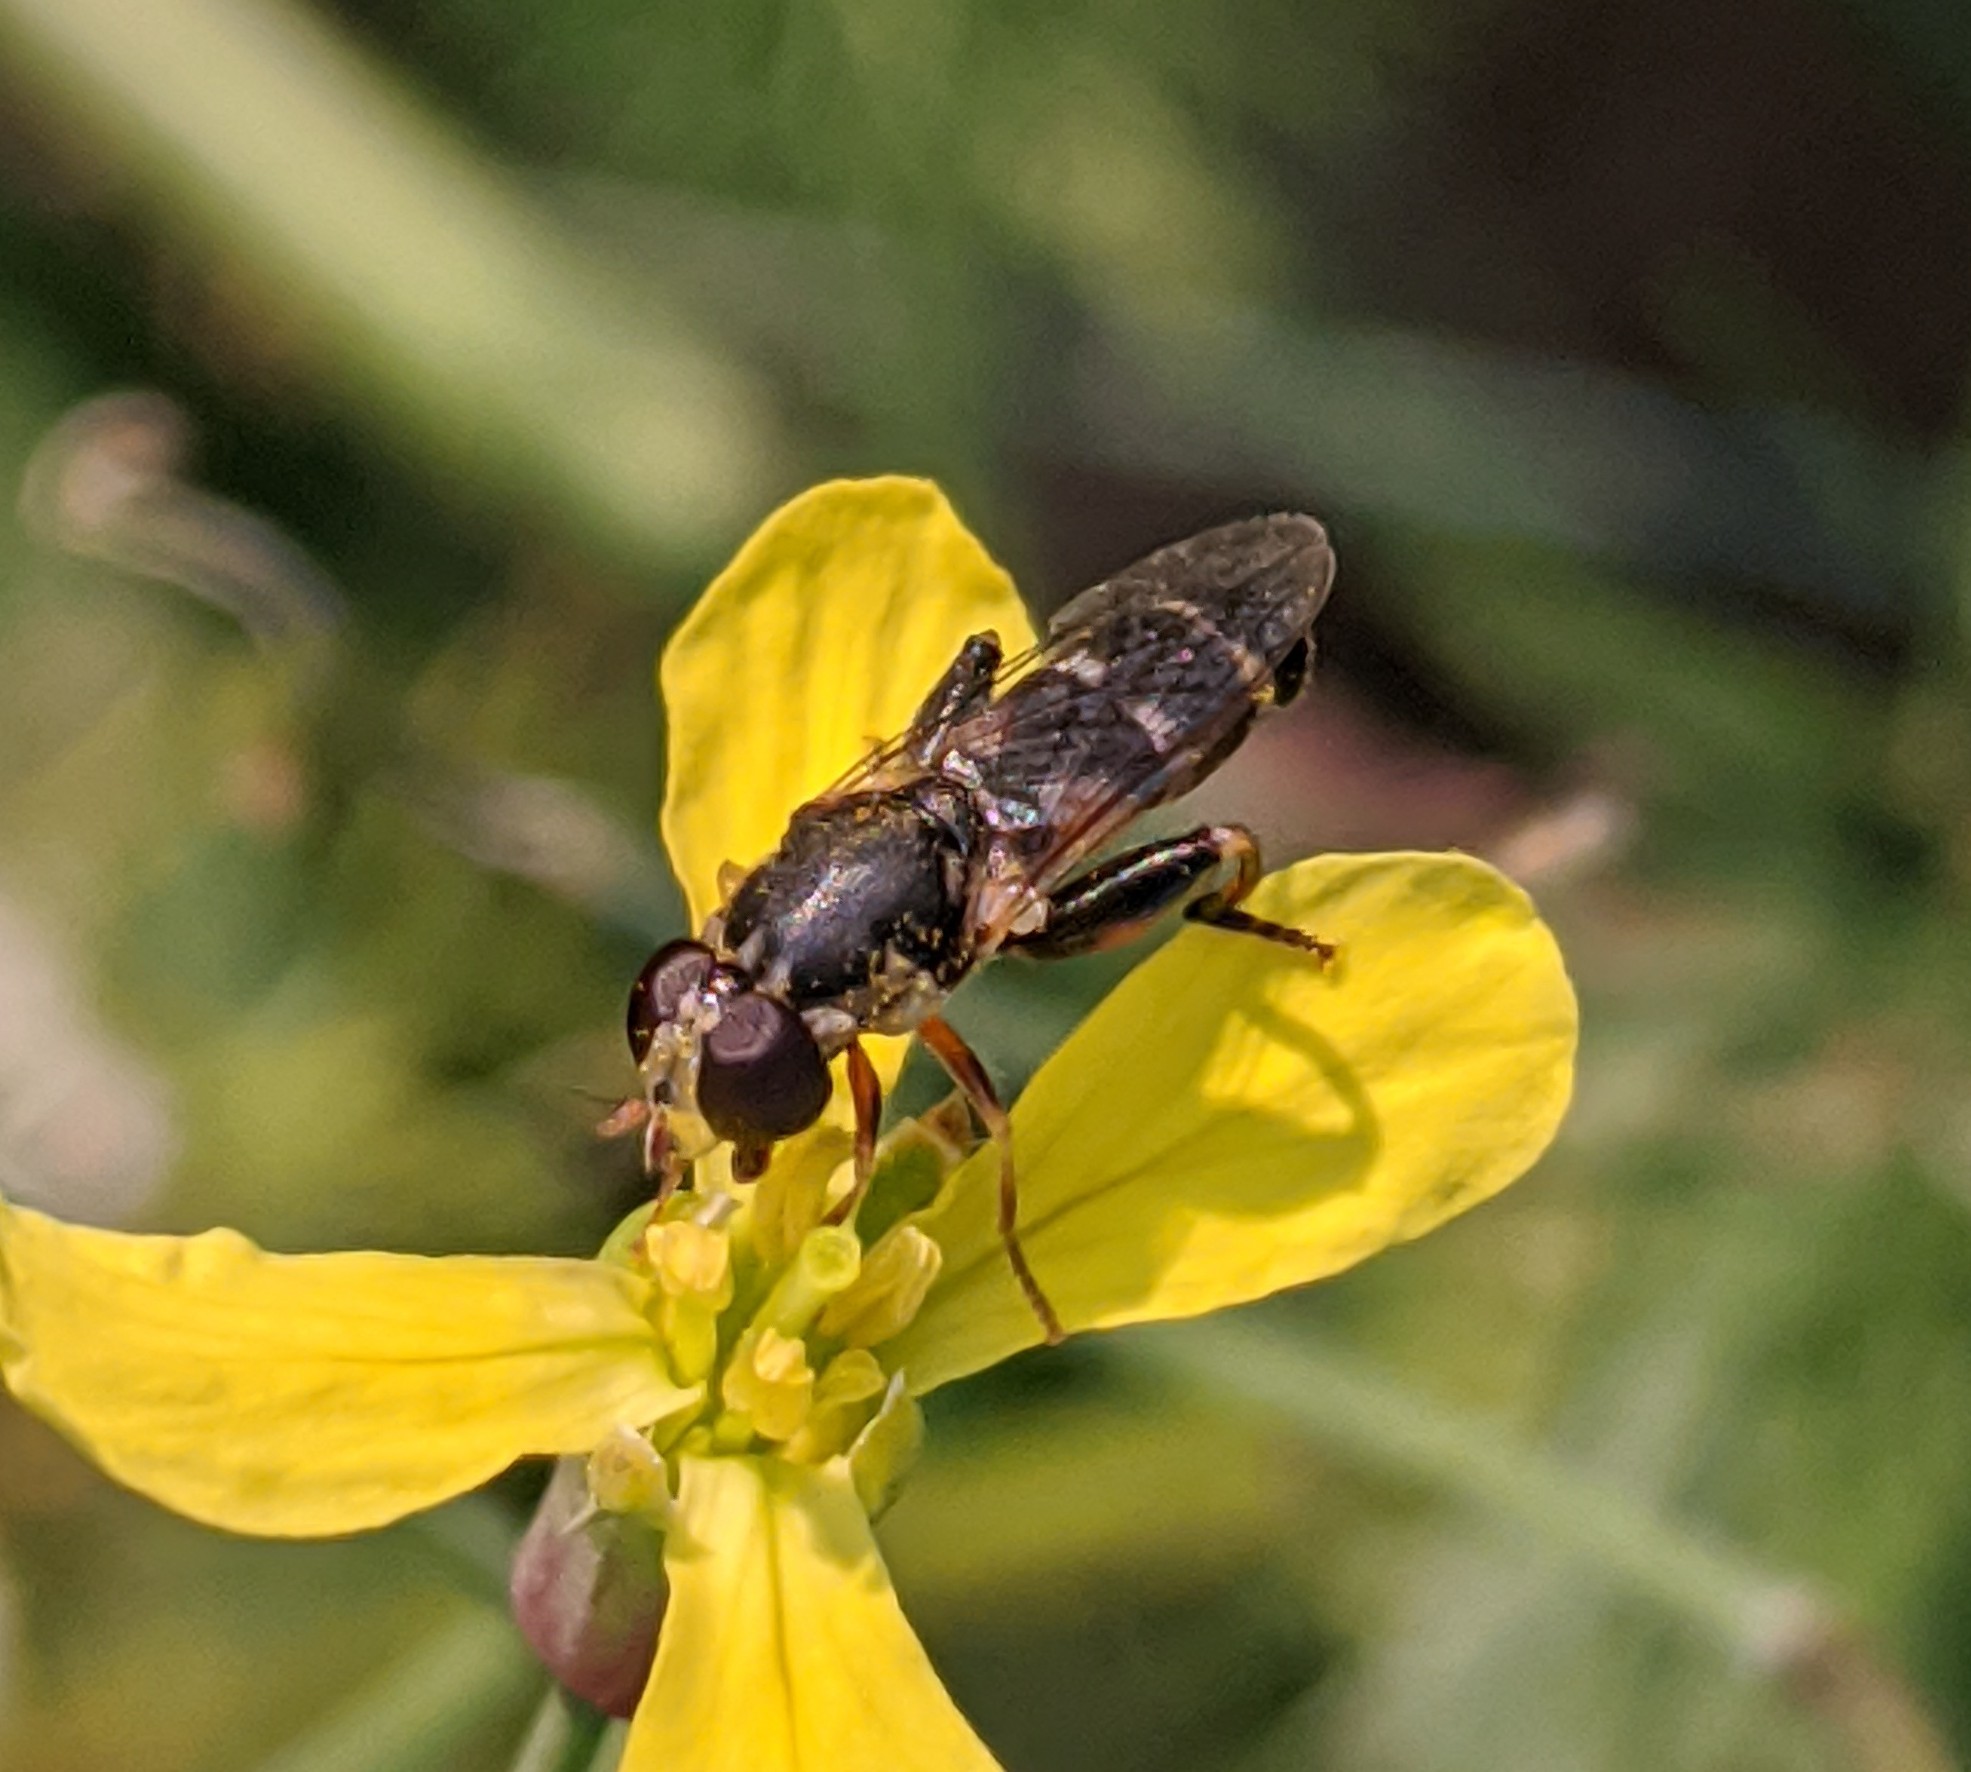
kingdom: Animalia
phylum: Arthropoda
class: Insecta
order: Diptera
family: Syrphidae
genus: Syritta
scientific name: Syritta pipiens
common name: Hover fly
